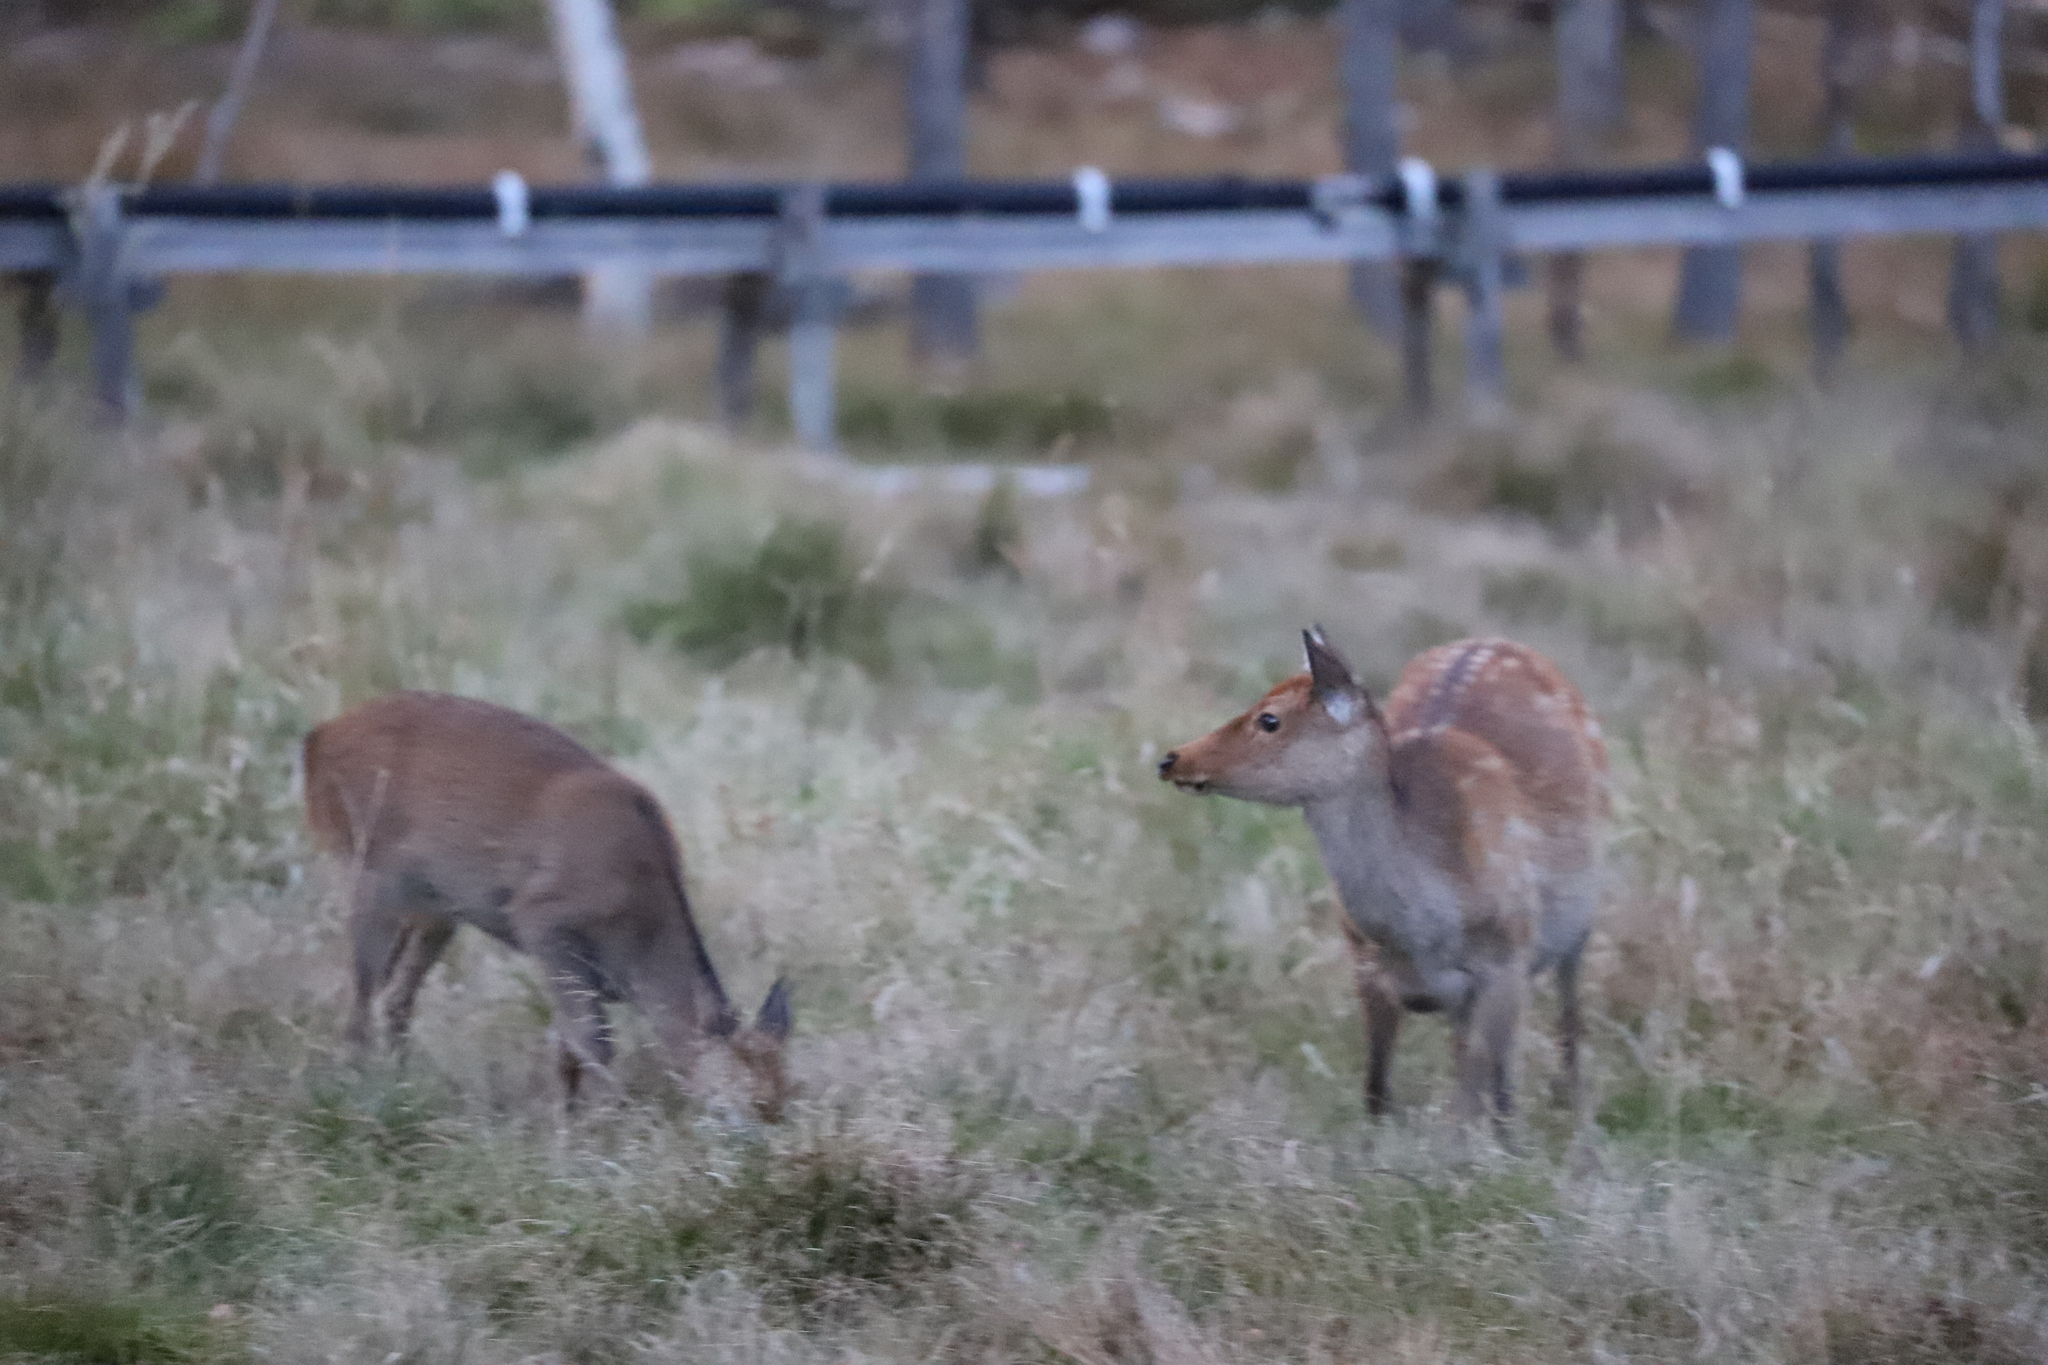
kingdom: Animalia
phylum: Chordata
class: Mammalia
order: Artiodactyla
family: Cervidae
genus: Cervus
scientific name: Cervus nippon
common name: Sika deer
